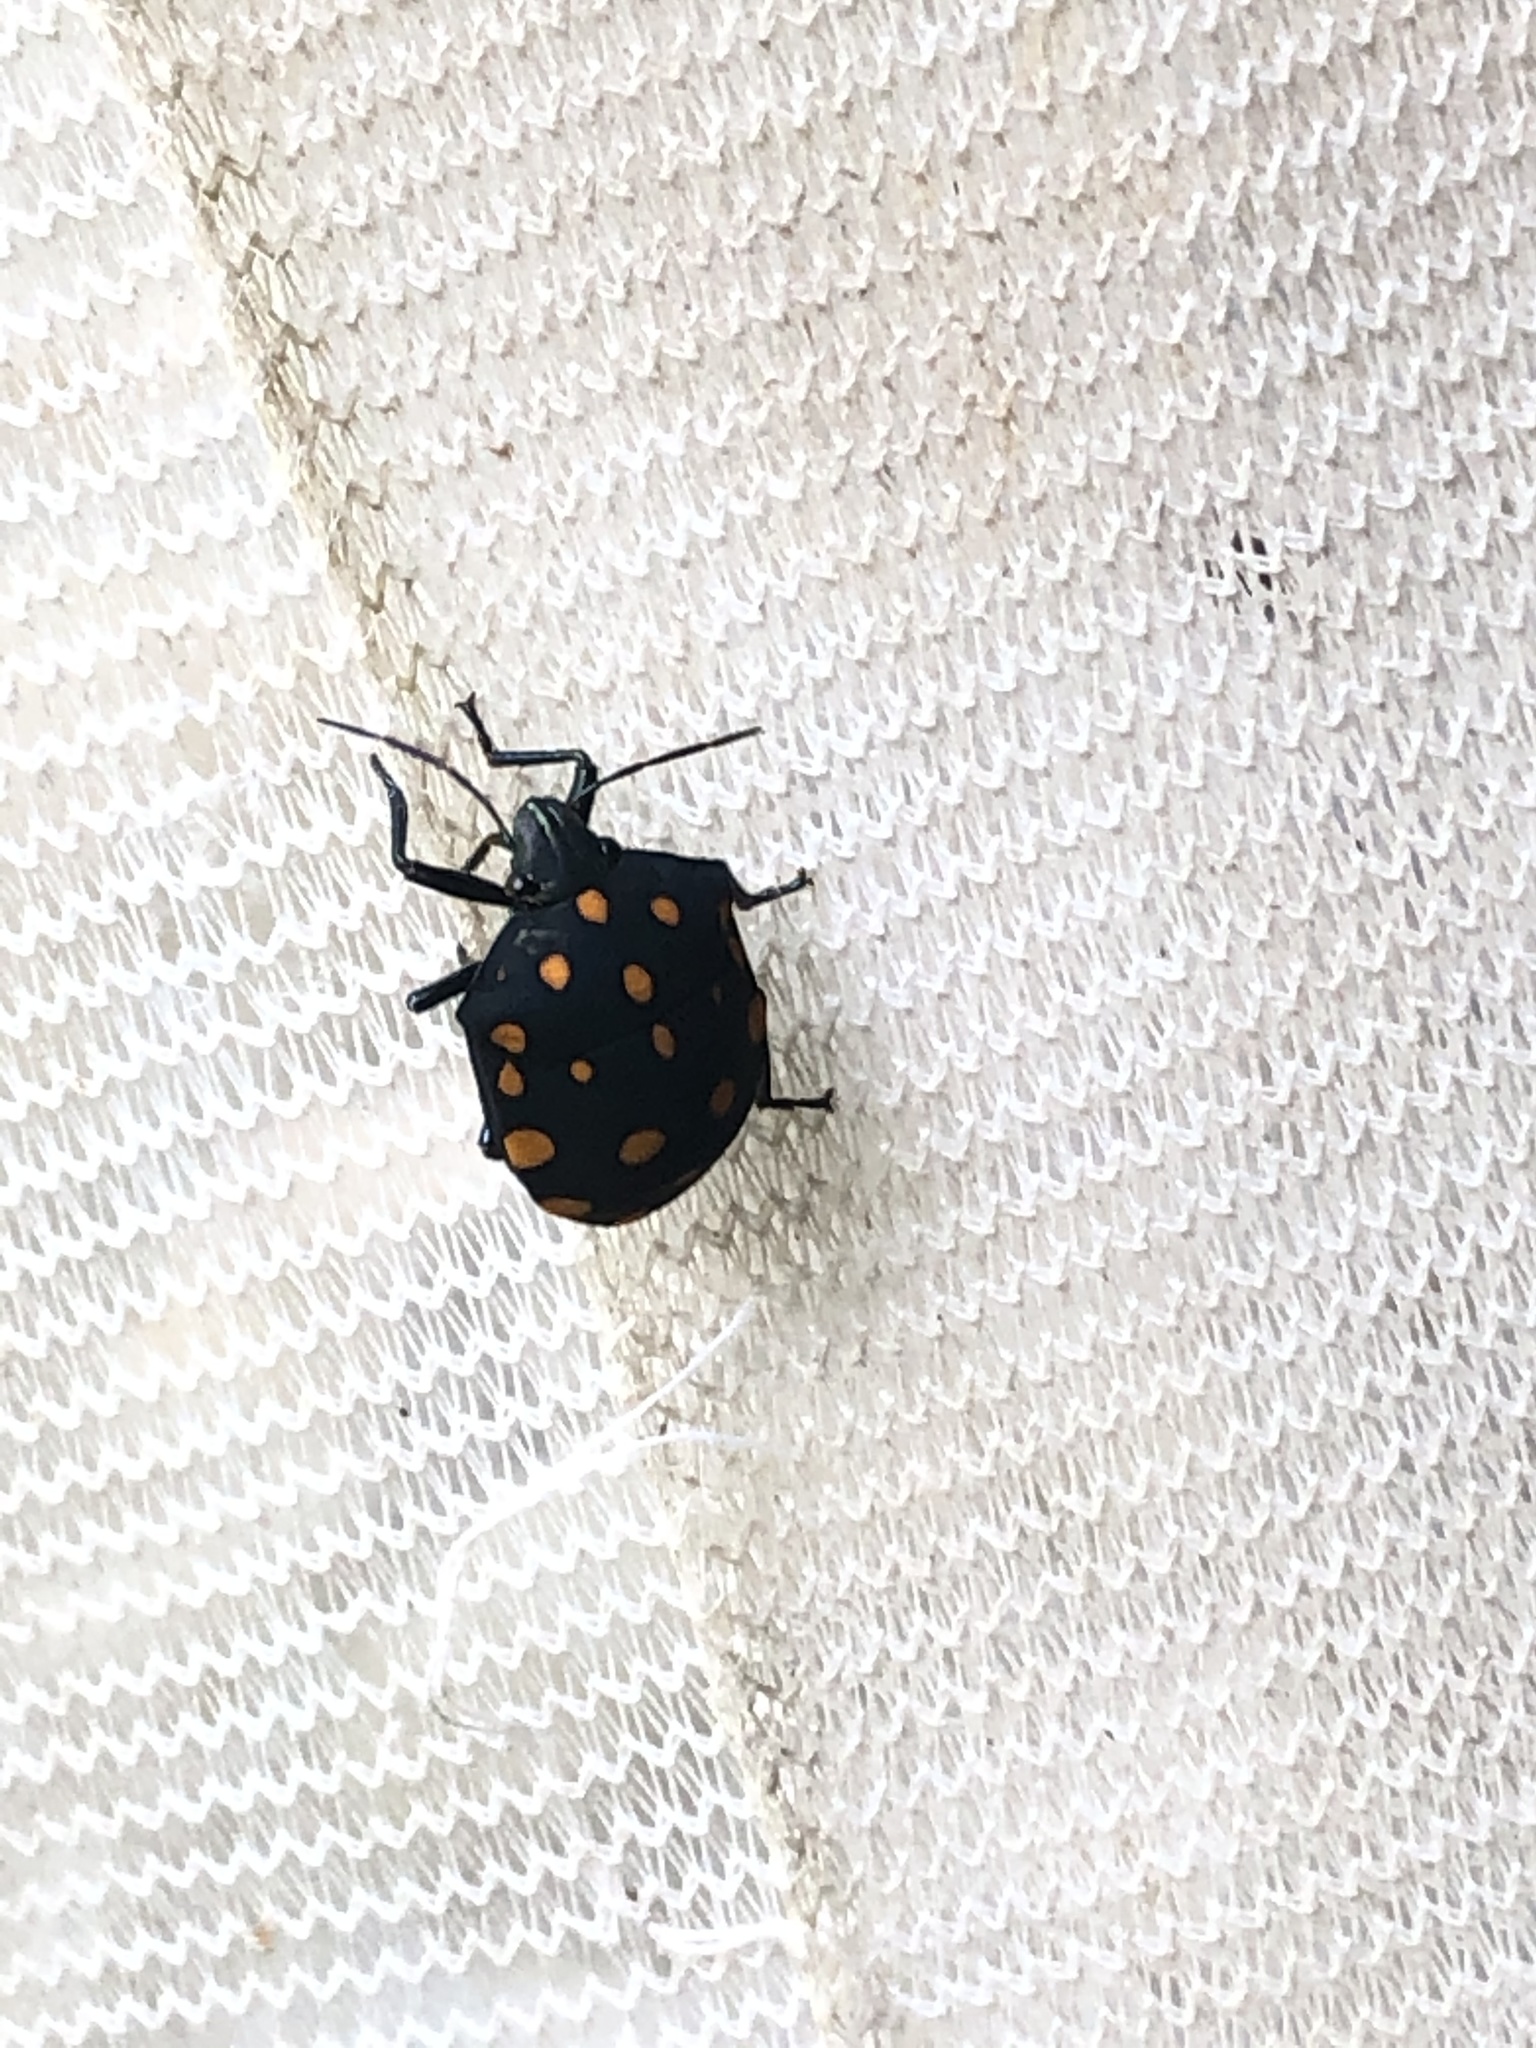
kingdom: Animalia
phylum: Arthropoda
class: Insecta
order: Hemiptera
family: Scutelleridae
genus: Pachycoris
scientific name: Pachycoris torridus
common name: Torrid jewel bug
